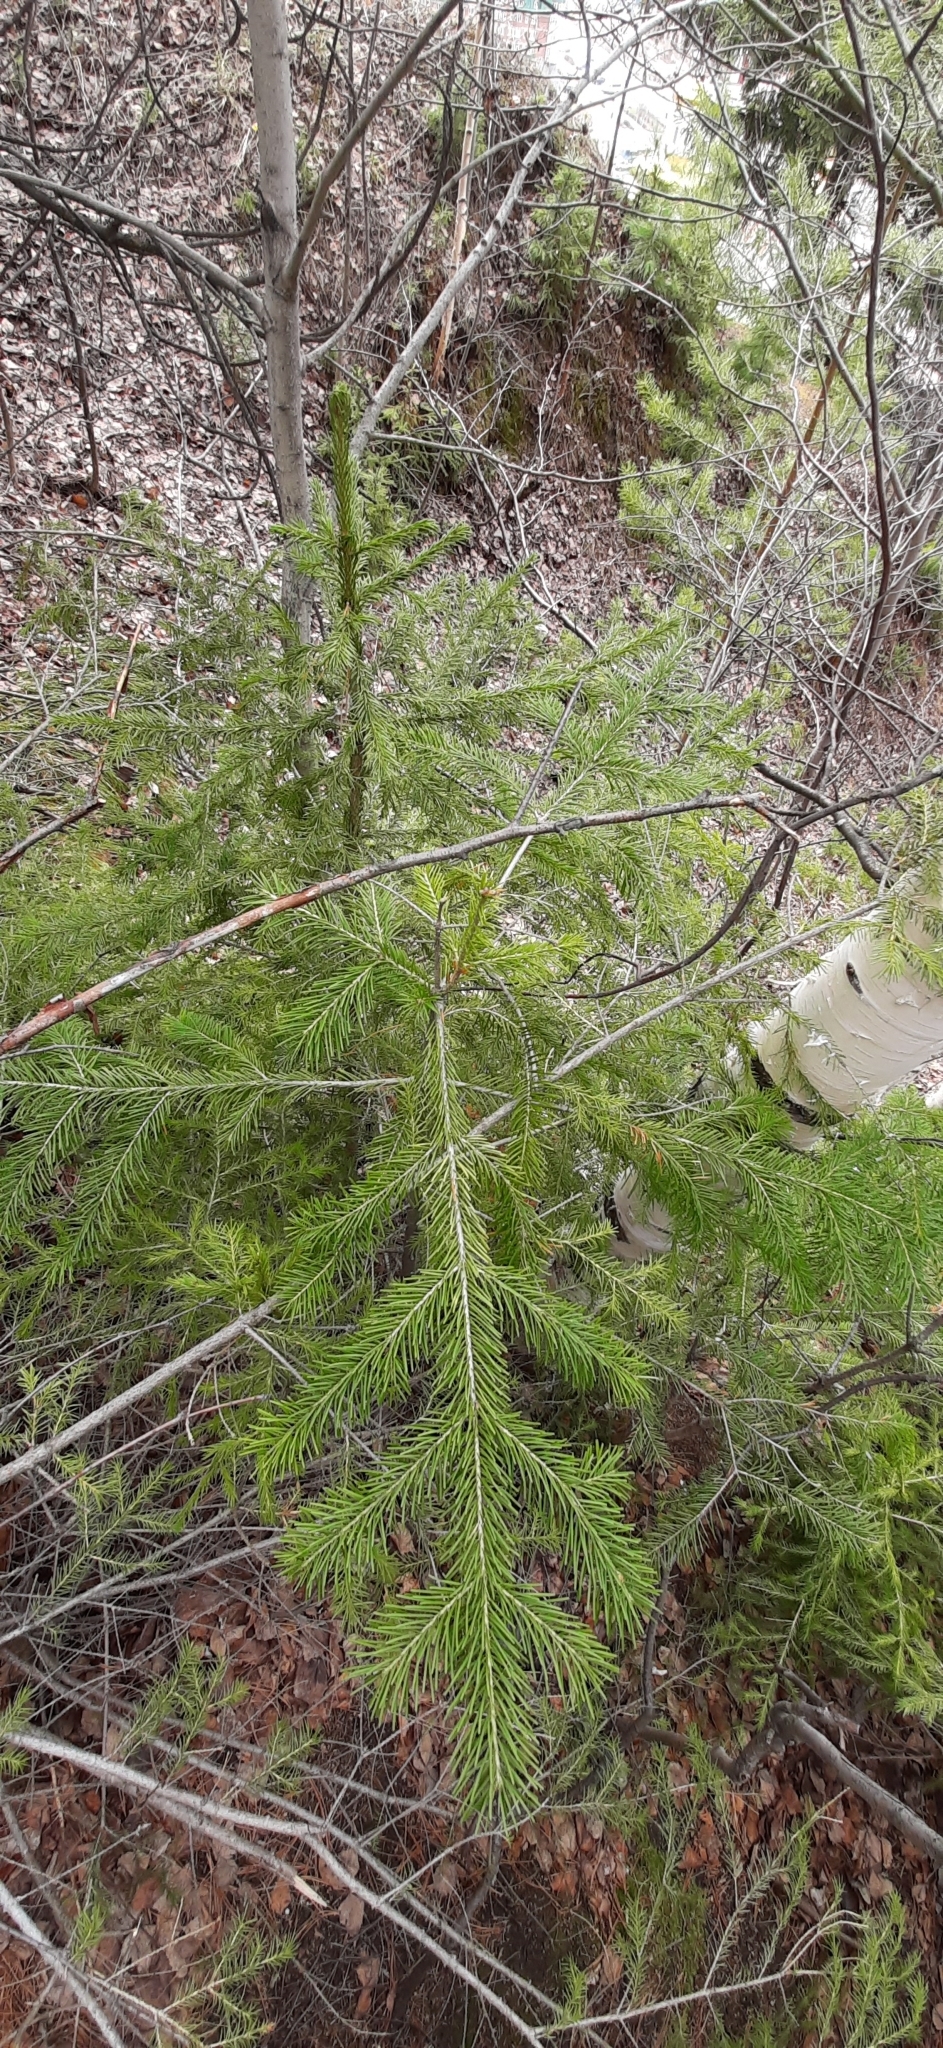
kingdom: Plantae
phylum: Tracheophyta
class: Pinopsida
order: Pinales
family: Pinaceae
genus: Abies
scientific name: Abies sibirica
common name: Siberian fir
